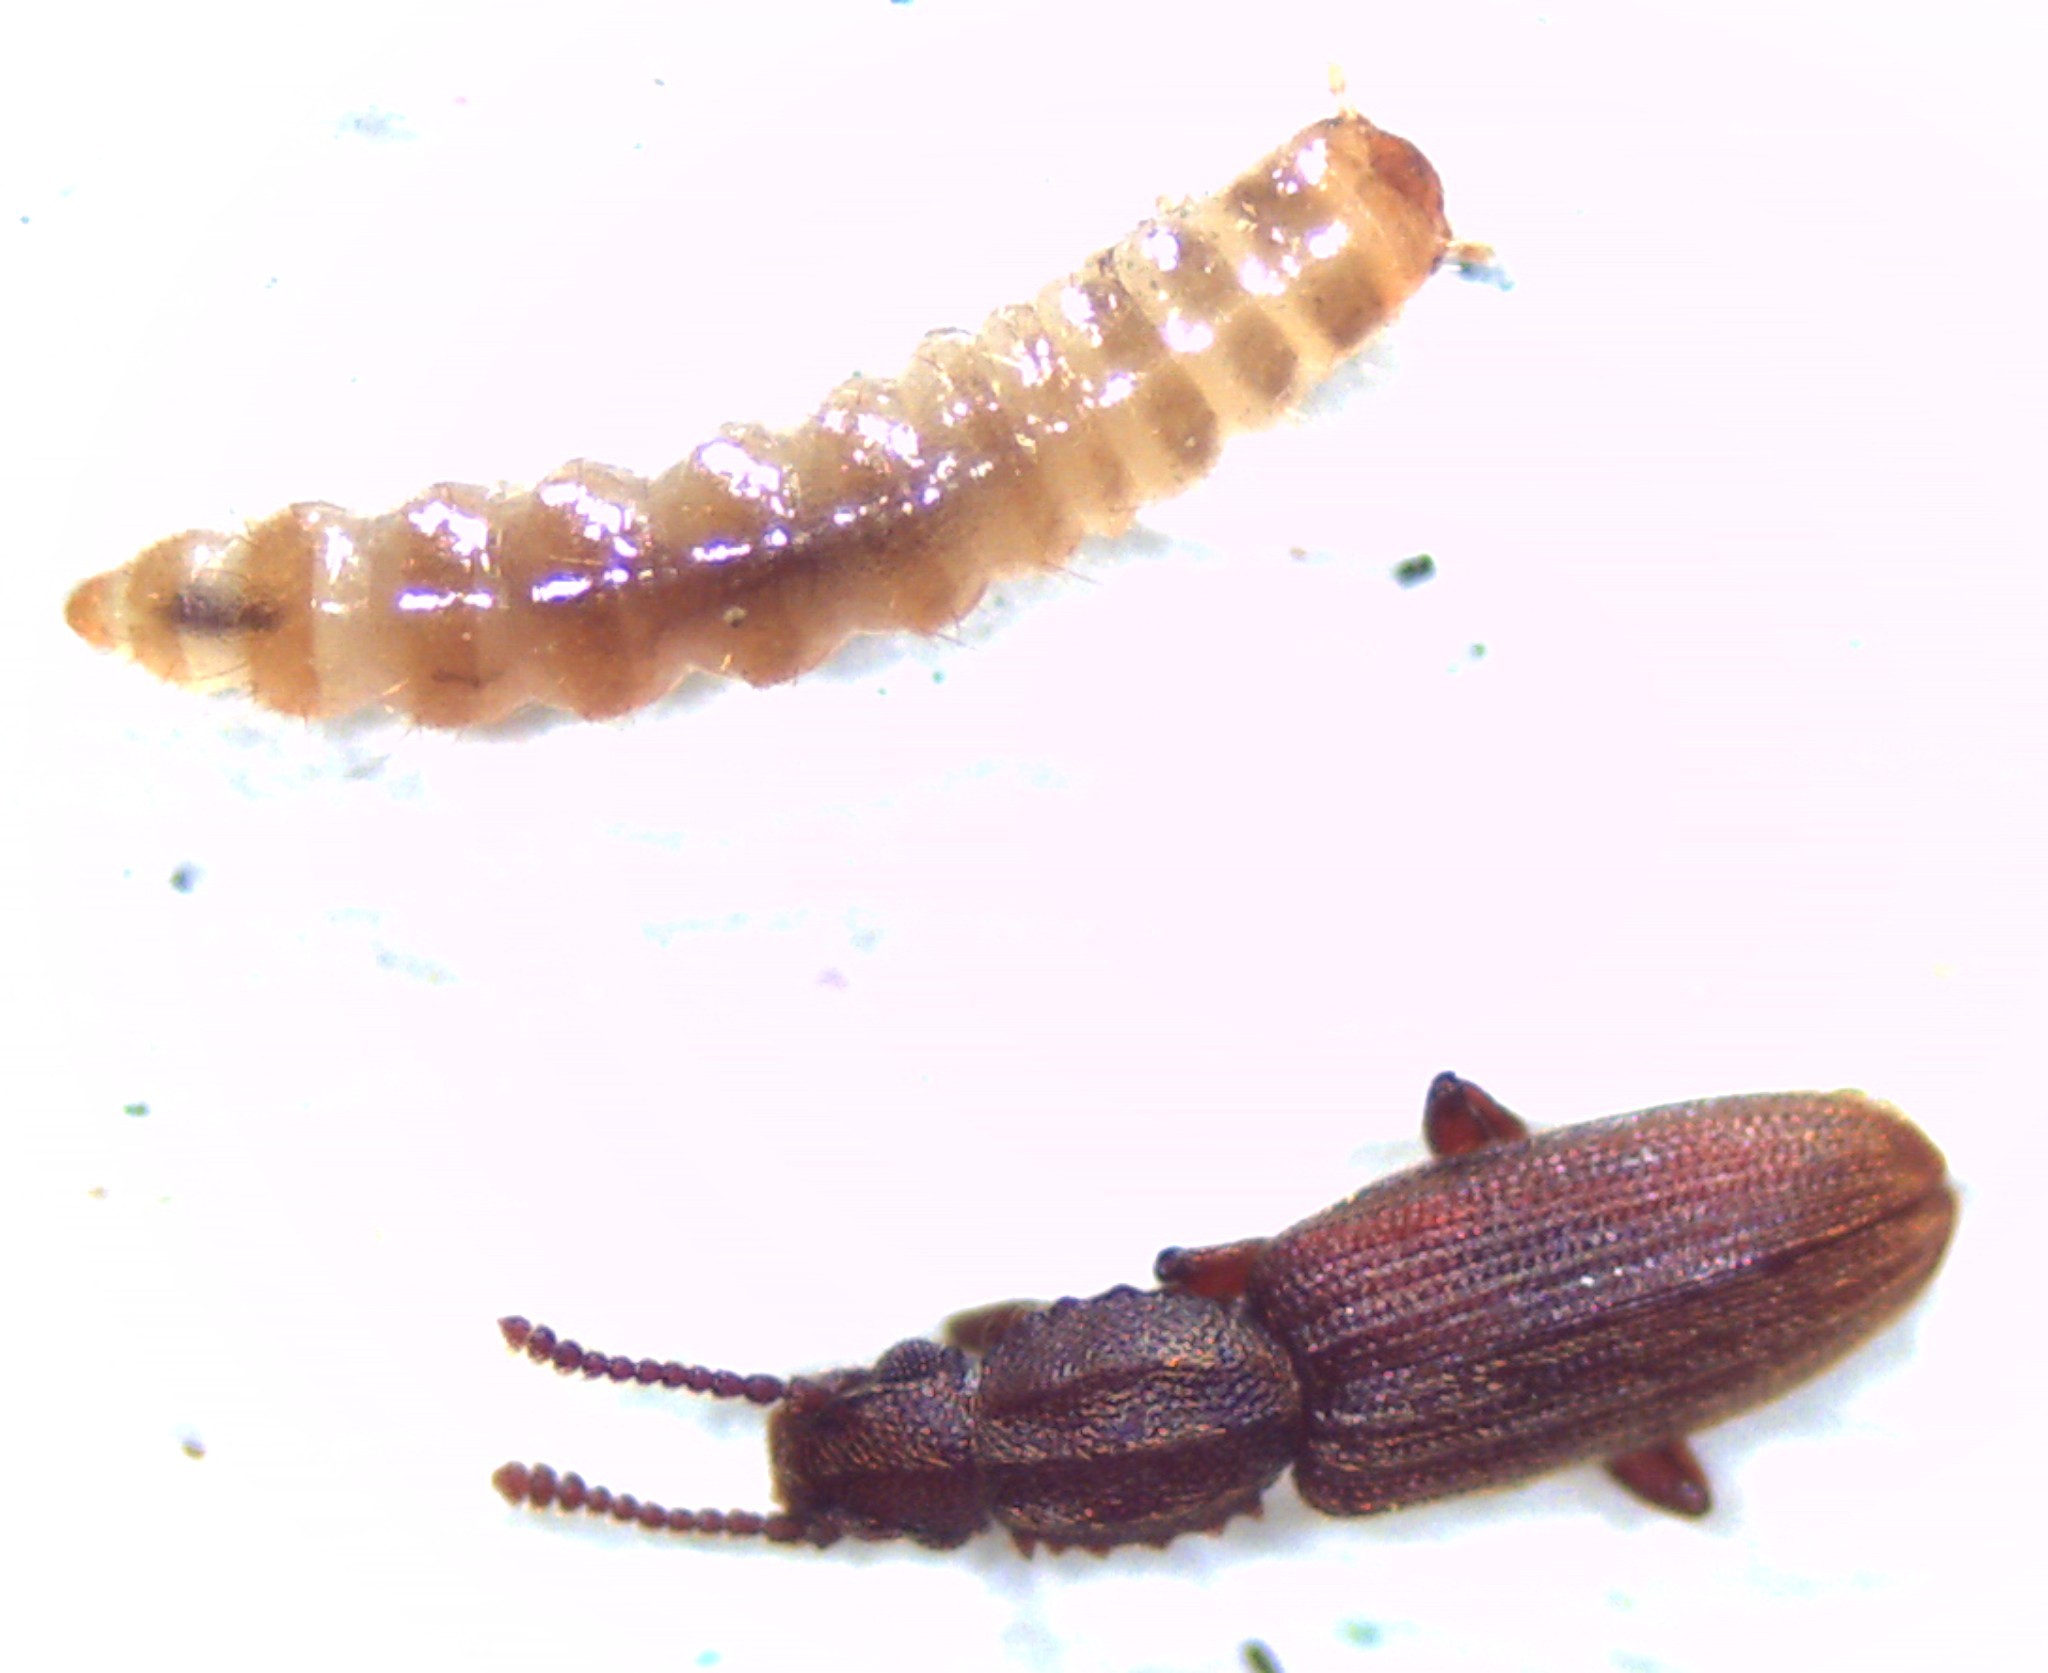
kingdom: Animalia
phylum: Arthropoda
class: Insecta
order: Coleoptera
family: Silvanidae
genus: Oryzaephilus
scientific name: Oryzaephilus surinamensis
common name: Sawtoothed grain beetle
